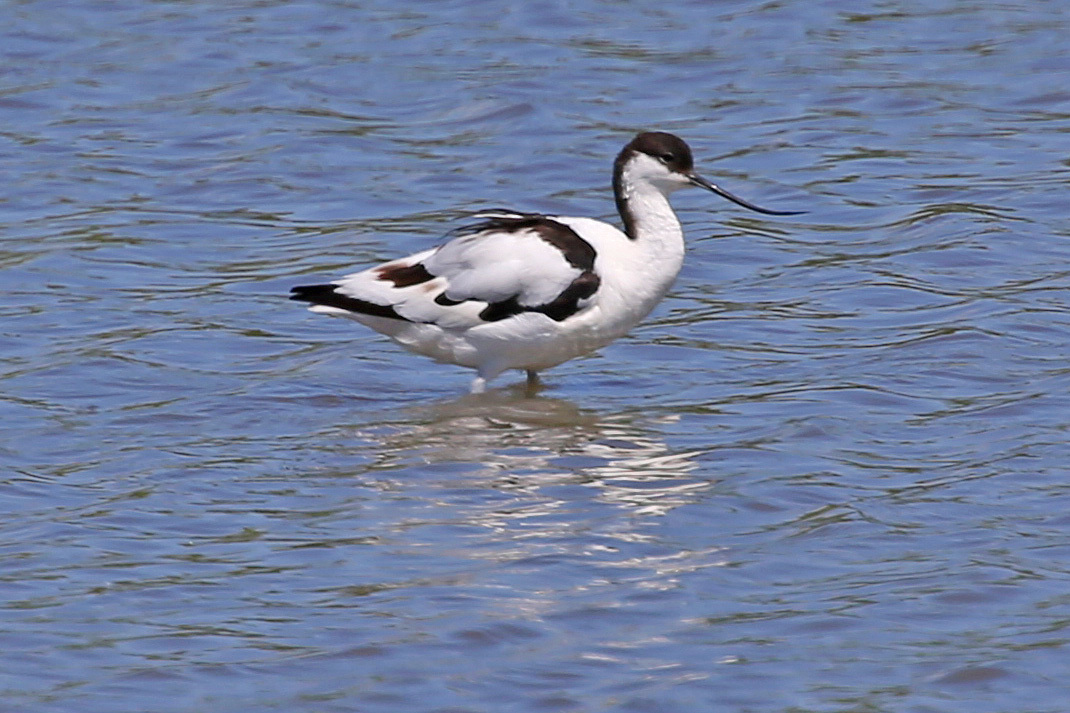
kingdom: Animalia
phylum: Chordata
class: Aves
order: Charadriiformes
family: Recurvirostridae
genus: Recurvirostra
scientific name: Recurvirostra avosetta
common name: Pied avocet
